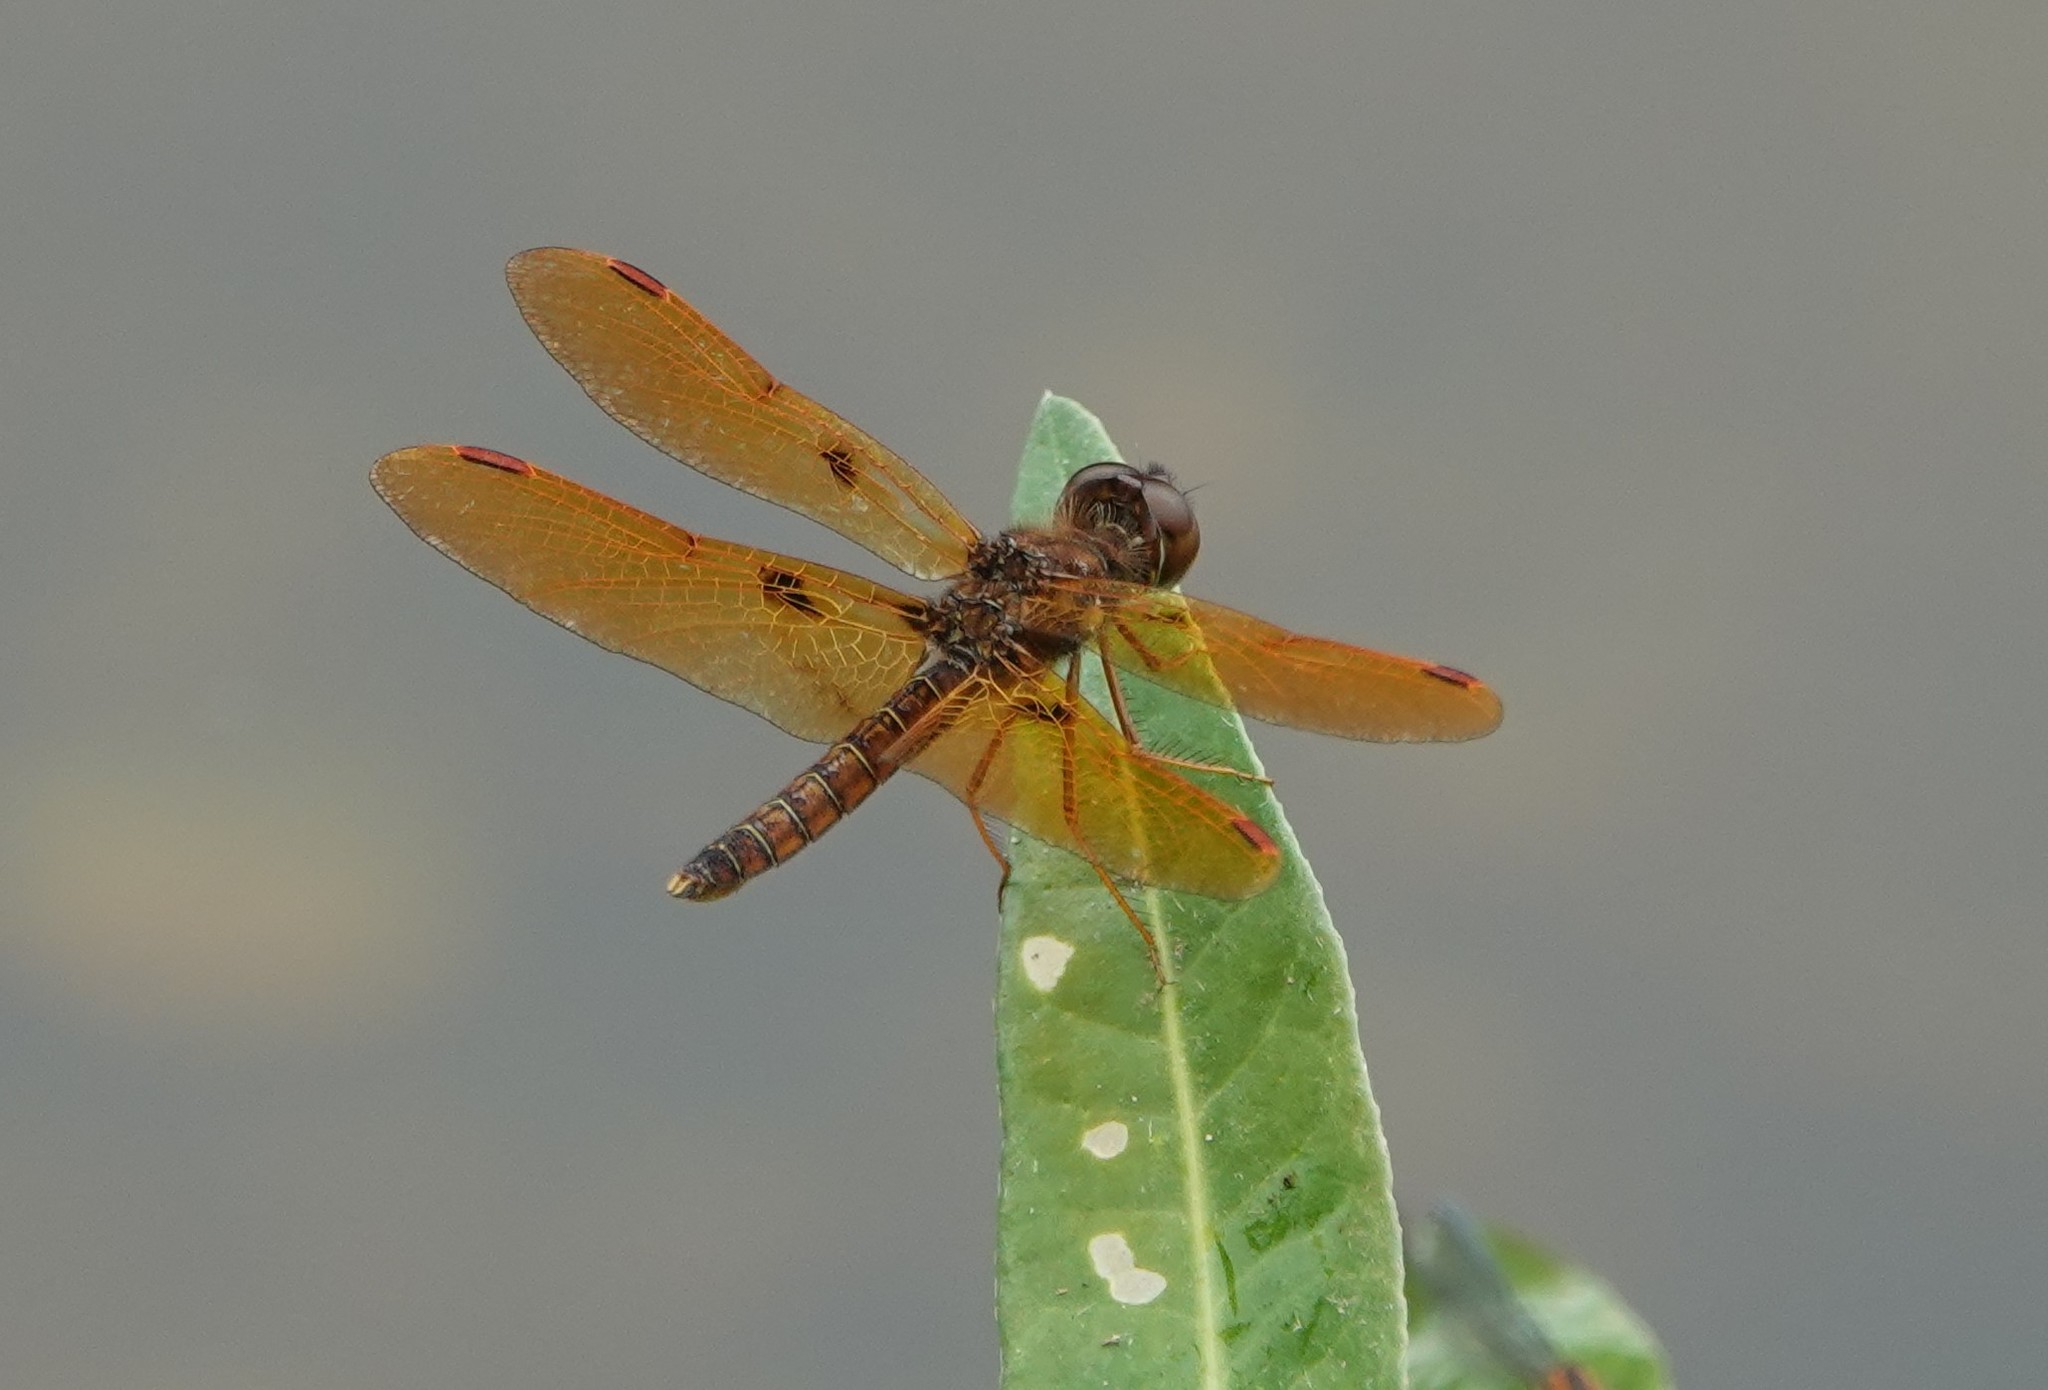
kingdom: Animalia
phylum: Arthropoda
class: Insecta
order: Odonata
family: Libellulidae
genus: Perithemis
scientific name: Perithemis tenera
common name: Eastern amberwing
